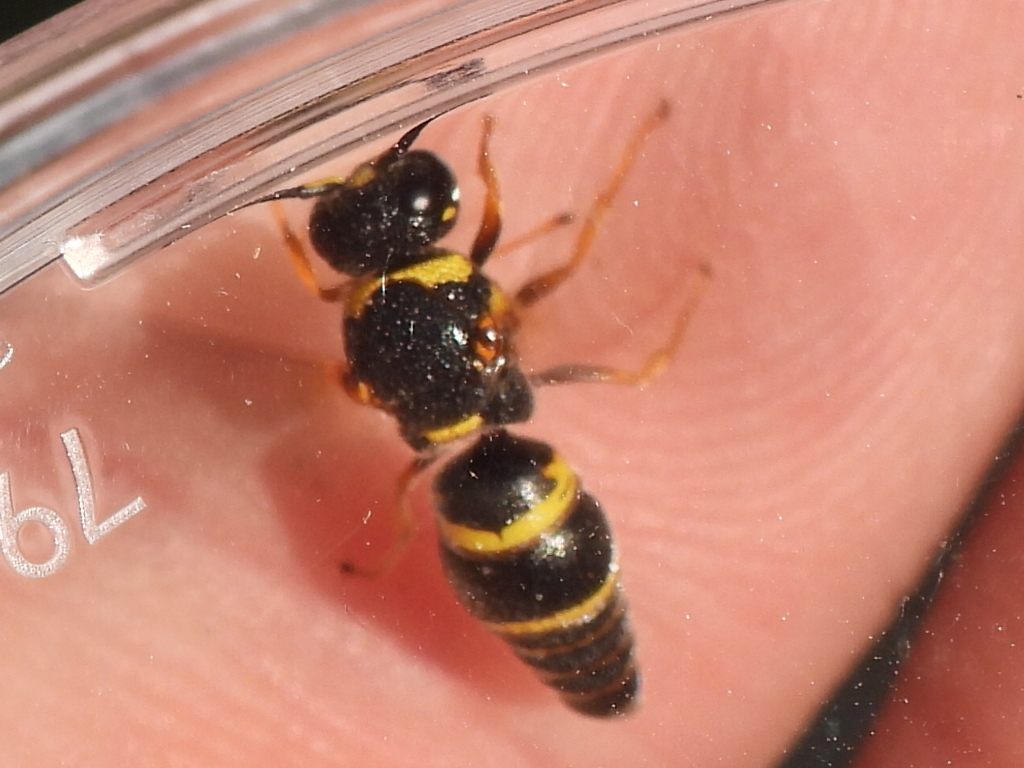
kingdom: Animalia
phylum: Arthropoda
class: Insecta
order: Hymenoptera
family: Eumenidae
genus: Euodynerus
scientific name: Euodynerus foraminatus
